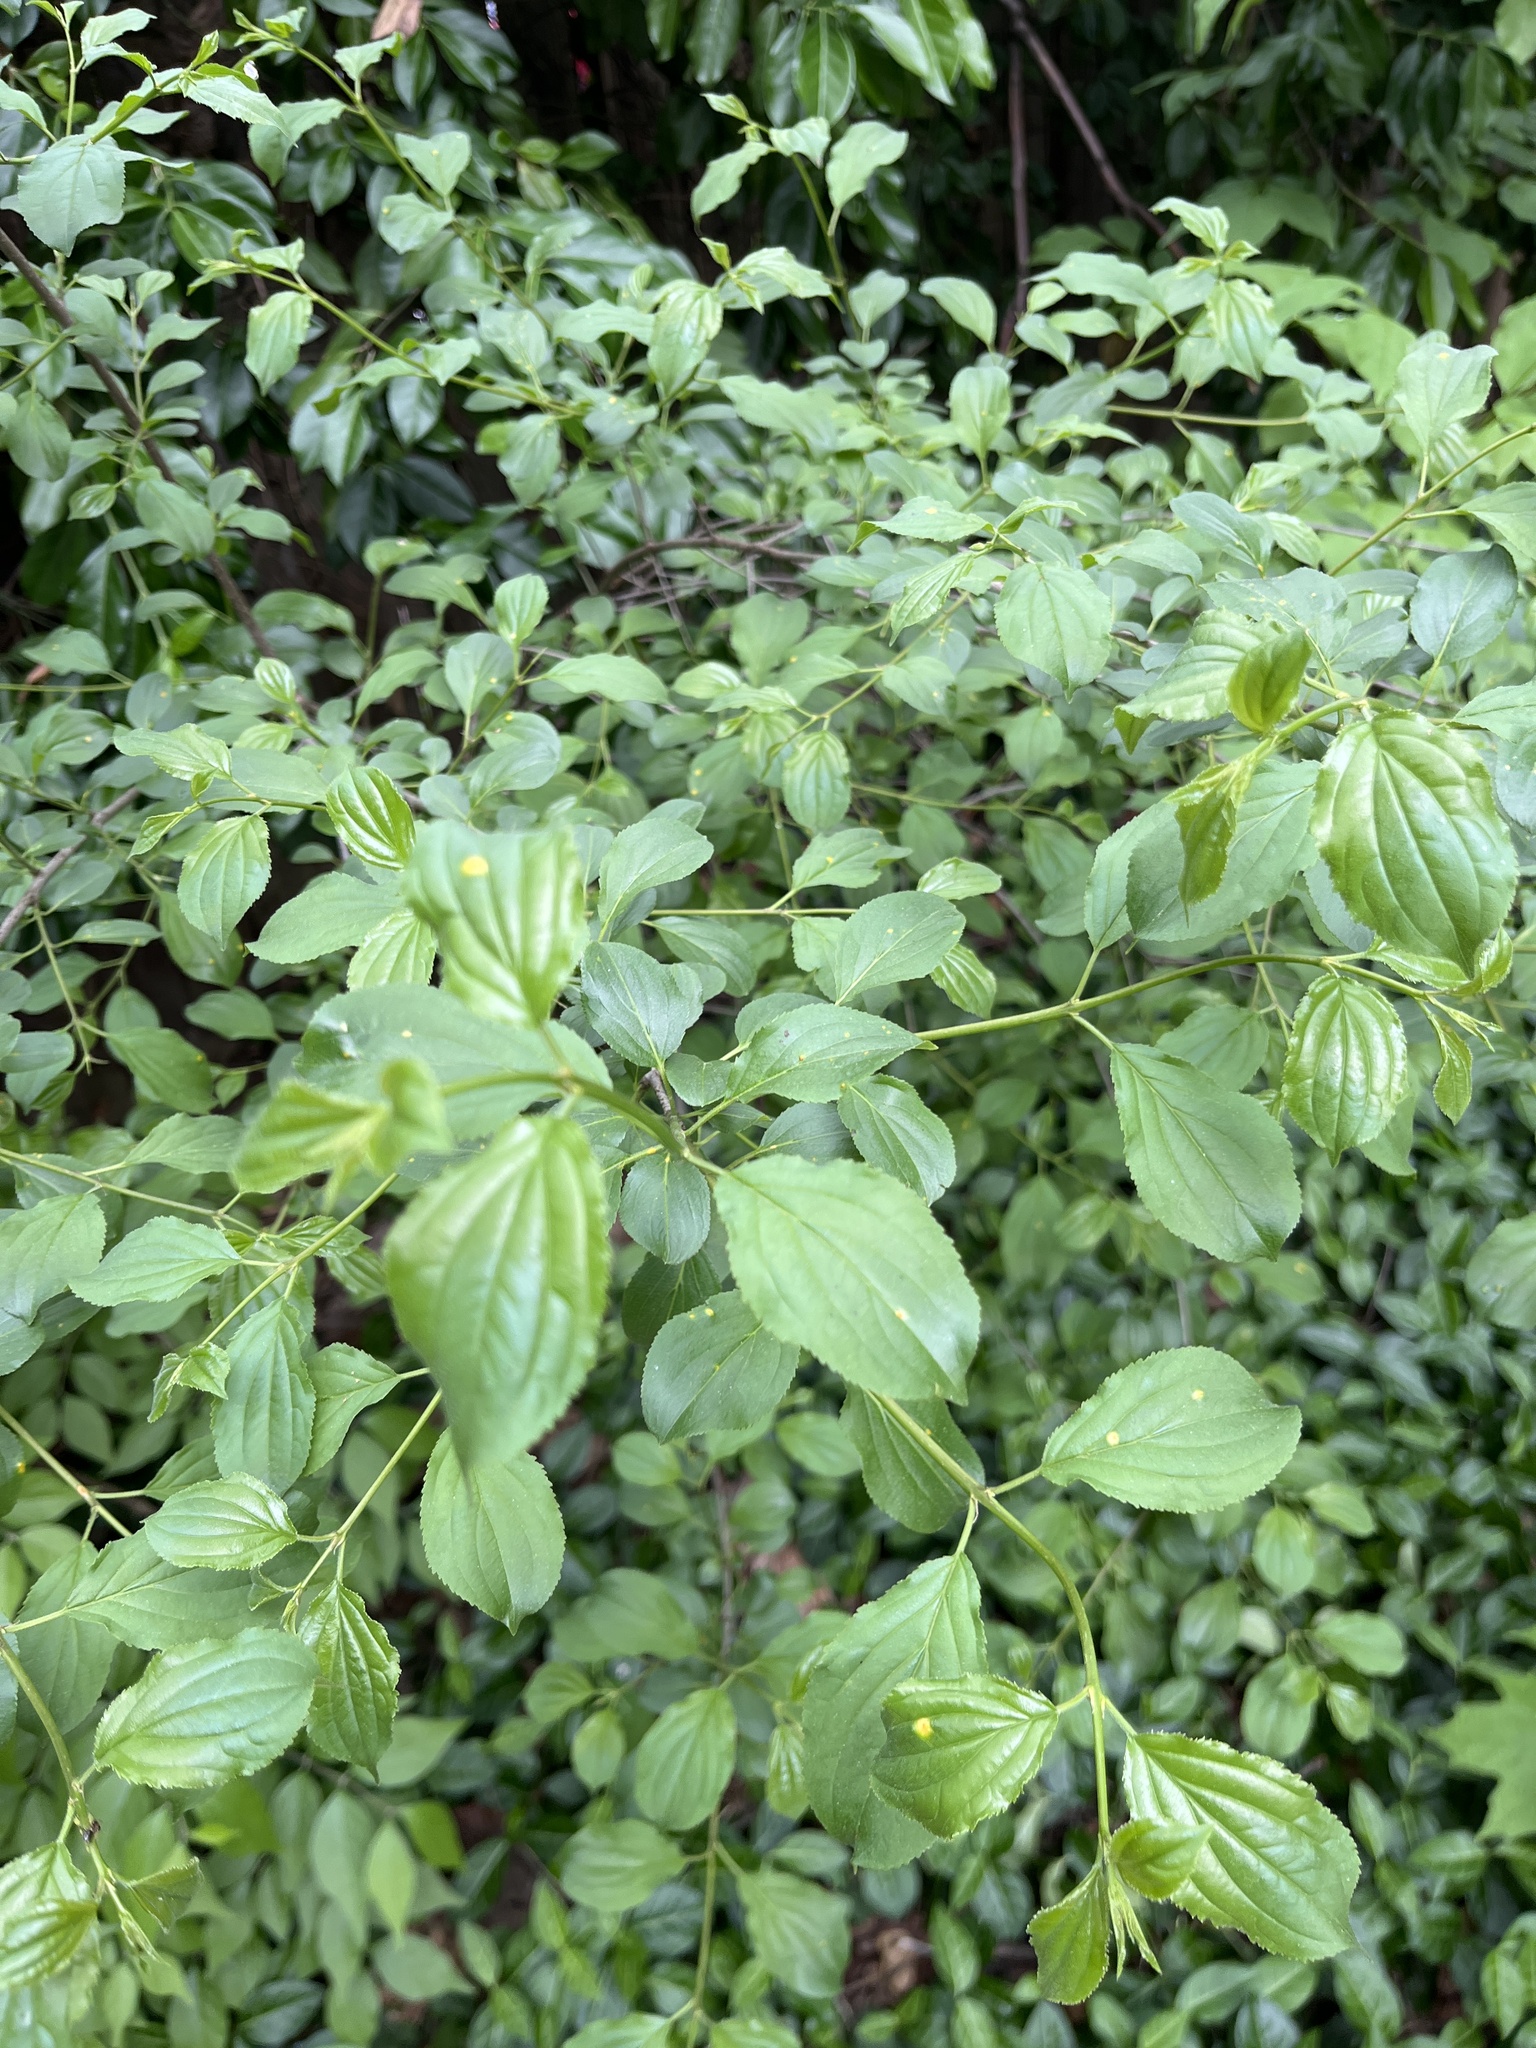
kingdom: Plantae
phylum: Tracheophyta
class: Magnoliopsida
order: Rosales
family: Rhamnaceae
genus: Rhamnus
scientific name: Rhamnus cathartica
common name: Common buckthorn
